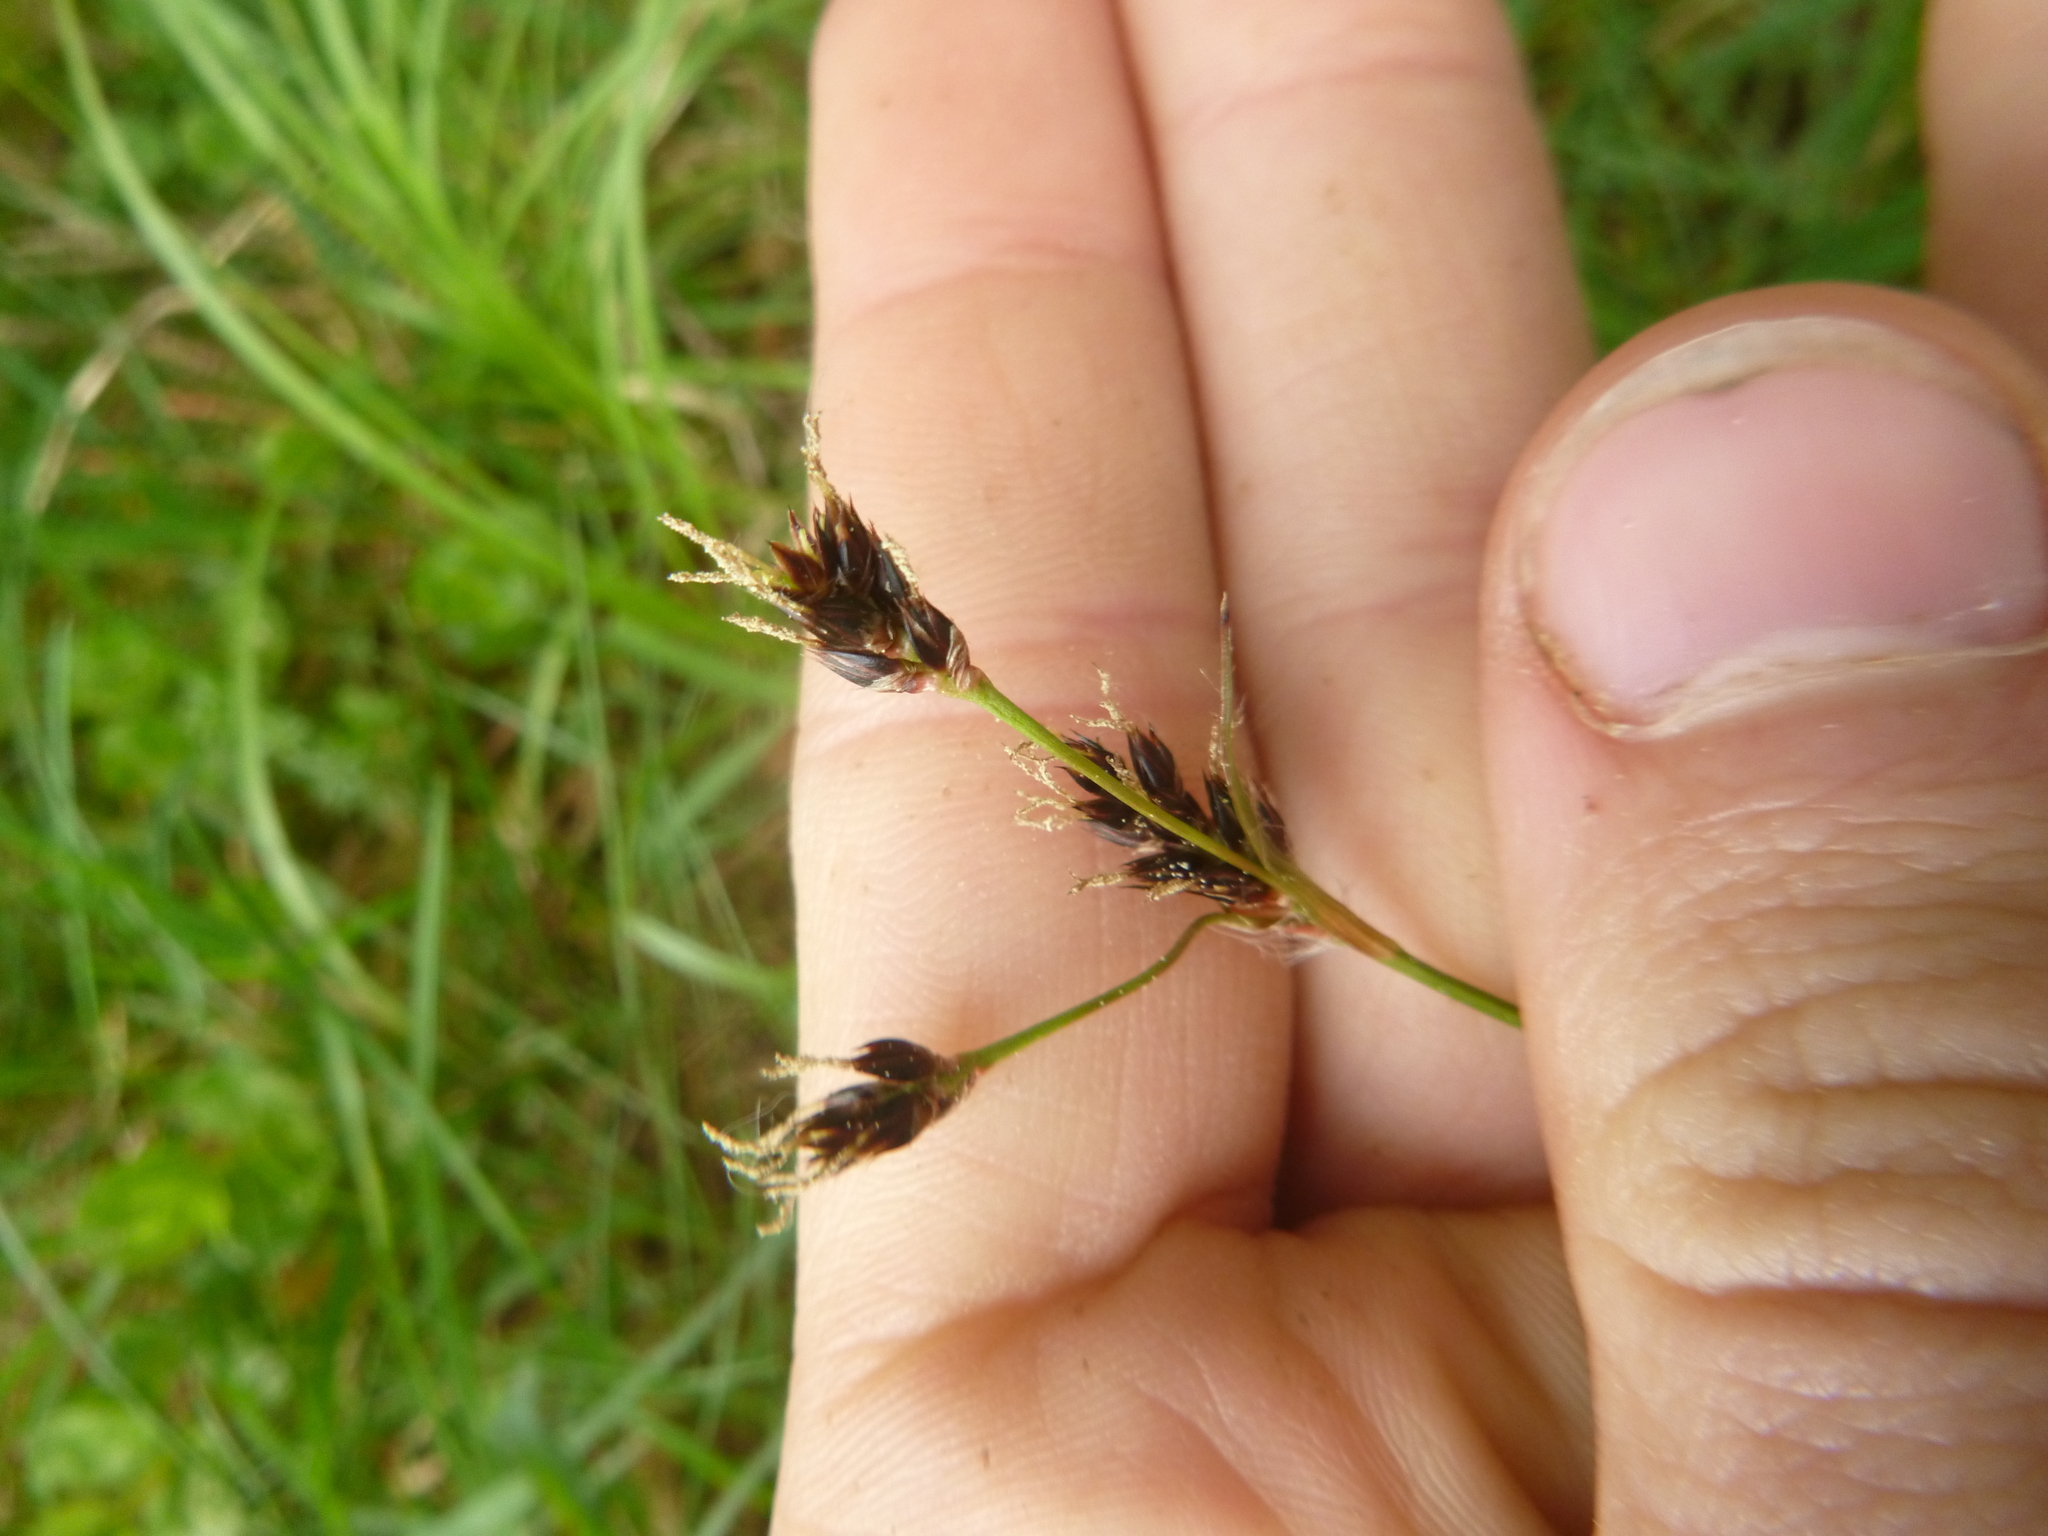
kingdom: Plantae
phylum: Tracheophyta
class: Liliopsida
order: Poales
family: Juncaceae
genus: Luzula
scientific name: Luzula campestris
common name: Field wood-rush
